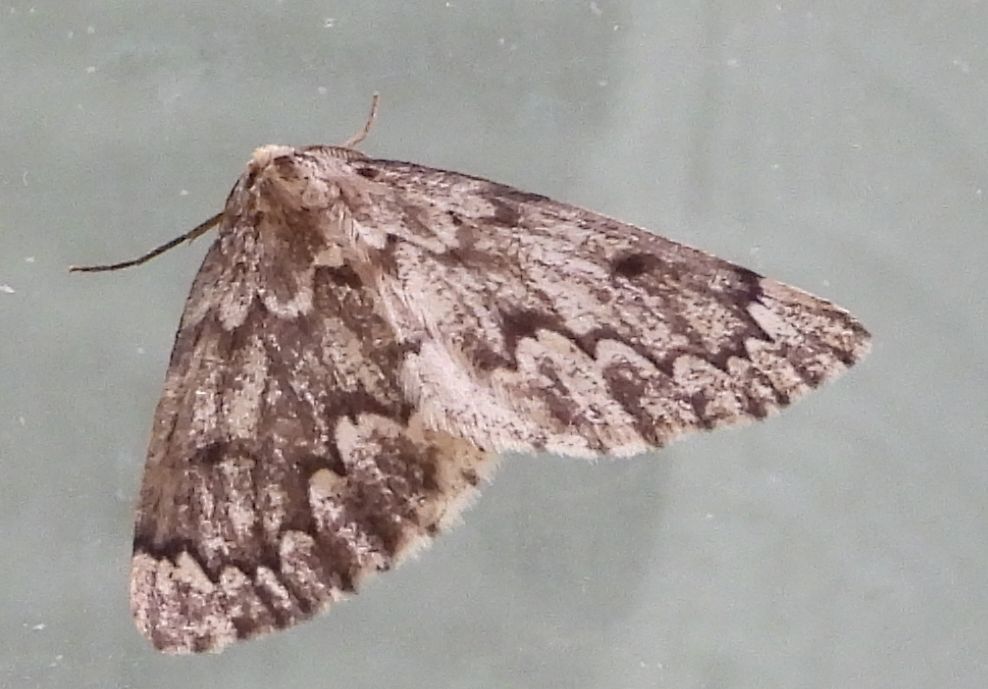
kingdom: Animalia
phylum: Arthropoda
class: Insecta
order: Lepidoptera
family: Geometridae
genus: Nepytia
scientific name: Nepytia canosaria
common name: False hemlock looper
